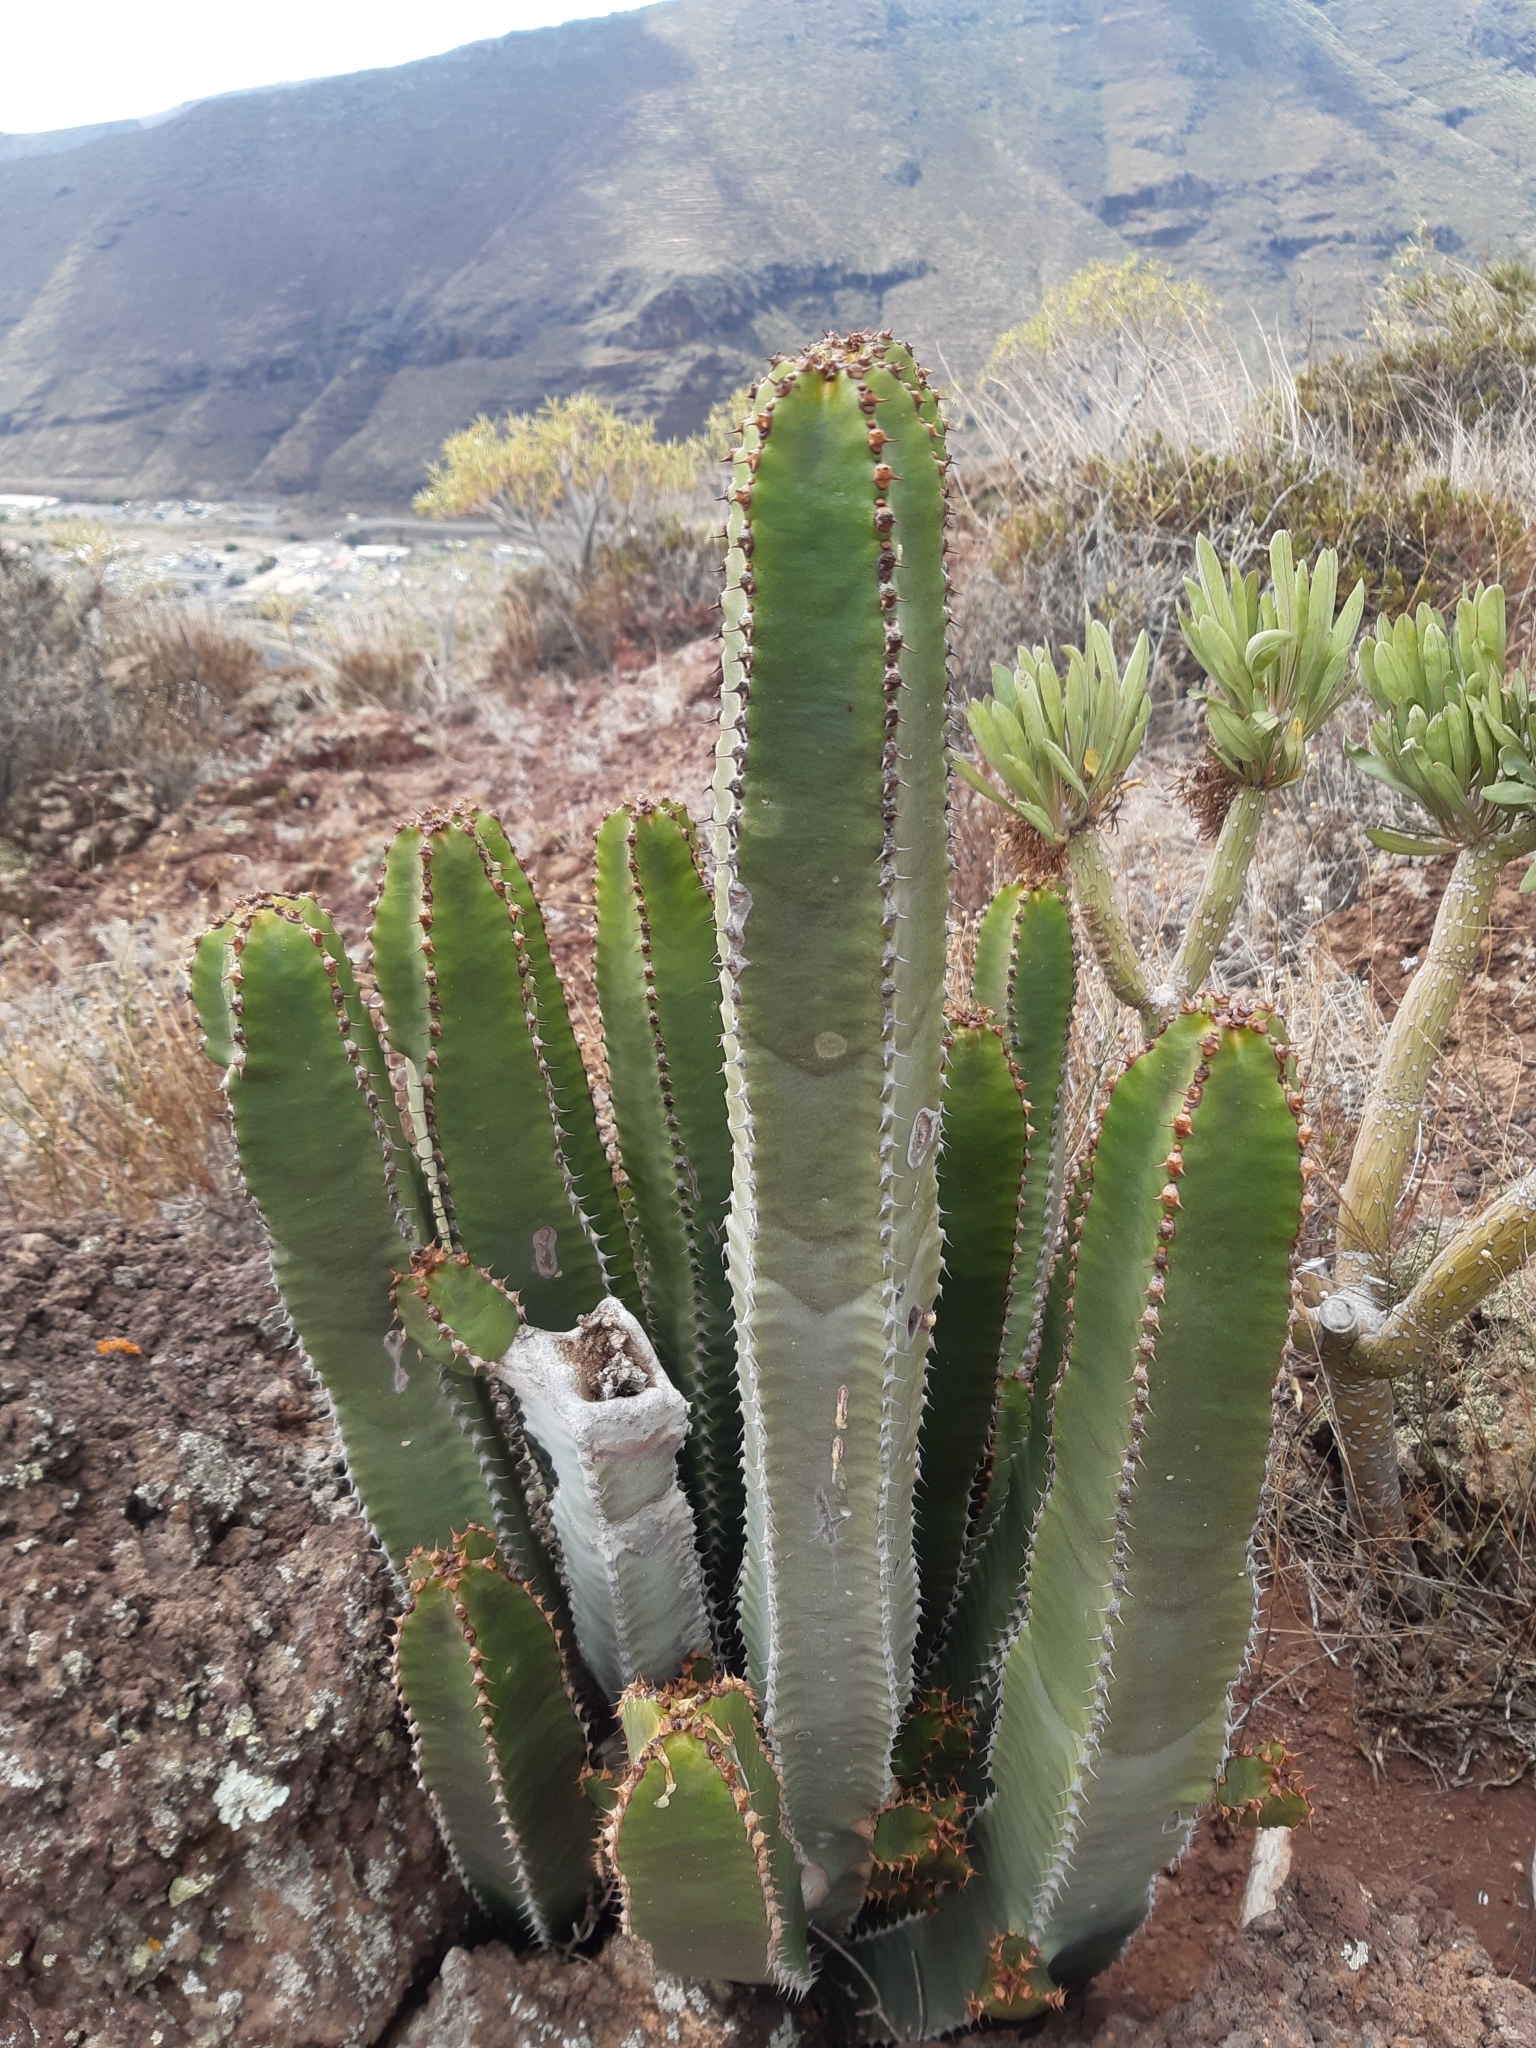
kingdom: Plantae
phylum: Tracheophyta
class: Magnoliopsida
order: Malpighiales
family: Euphorbiaceae
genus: Euphorbia
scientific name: Euphorbia canariensis
